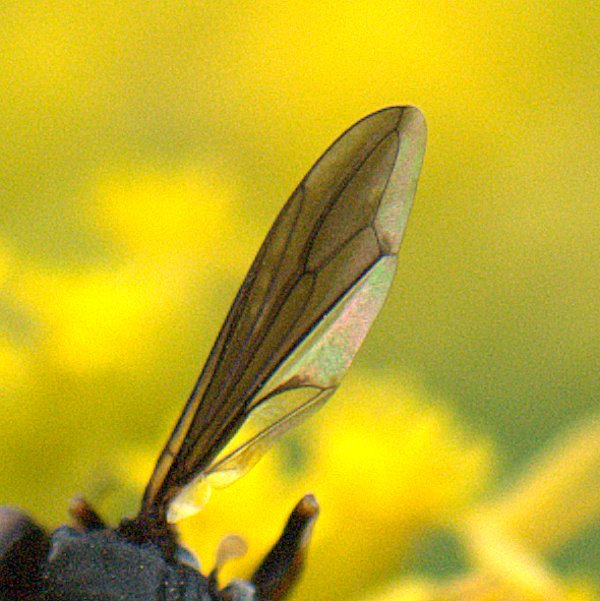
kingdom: Animalia
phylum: Arthropoda
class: Insecta
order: Diptera
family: Conopidae
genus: Physocephala
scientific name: Physocephala tibialis
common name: Common eastern physocephala
